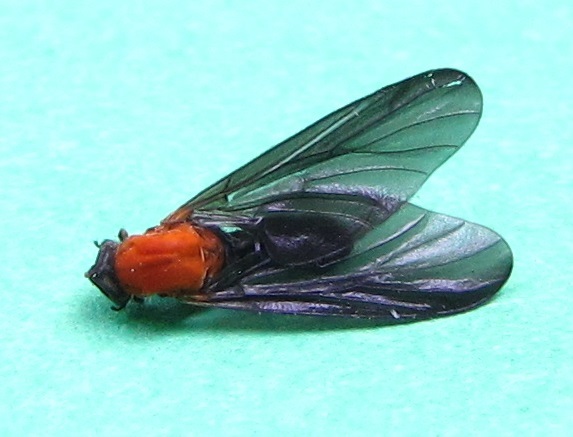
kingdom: Animalia
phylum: Arthropoda
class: Insecta
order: Diptera
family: Bibionidae
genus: Plecia
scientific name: Plecia americana
